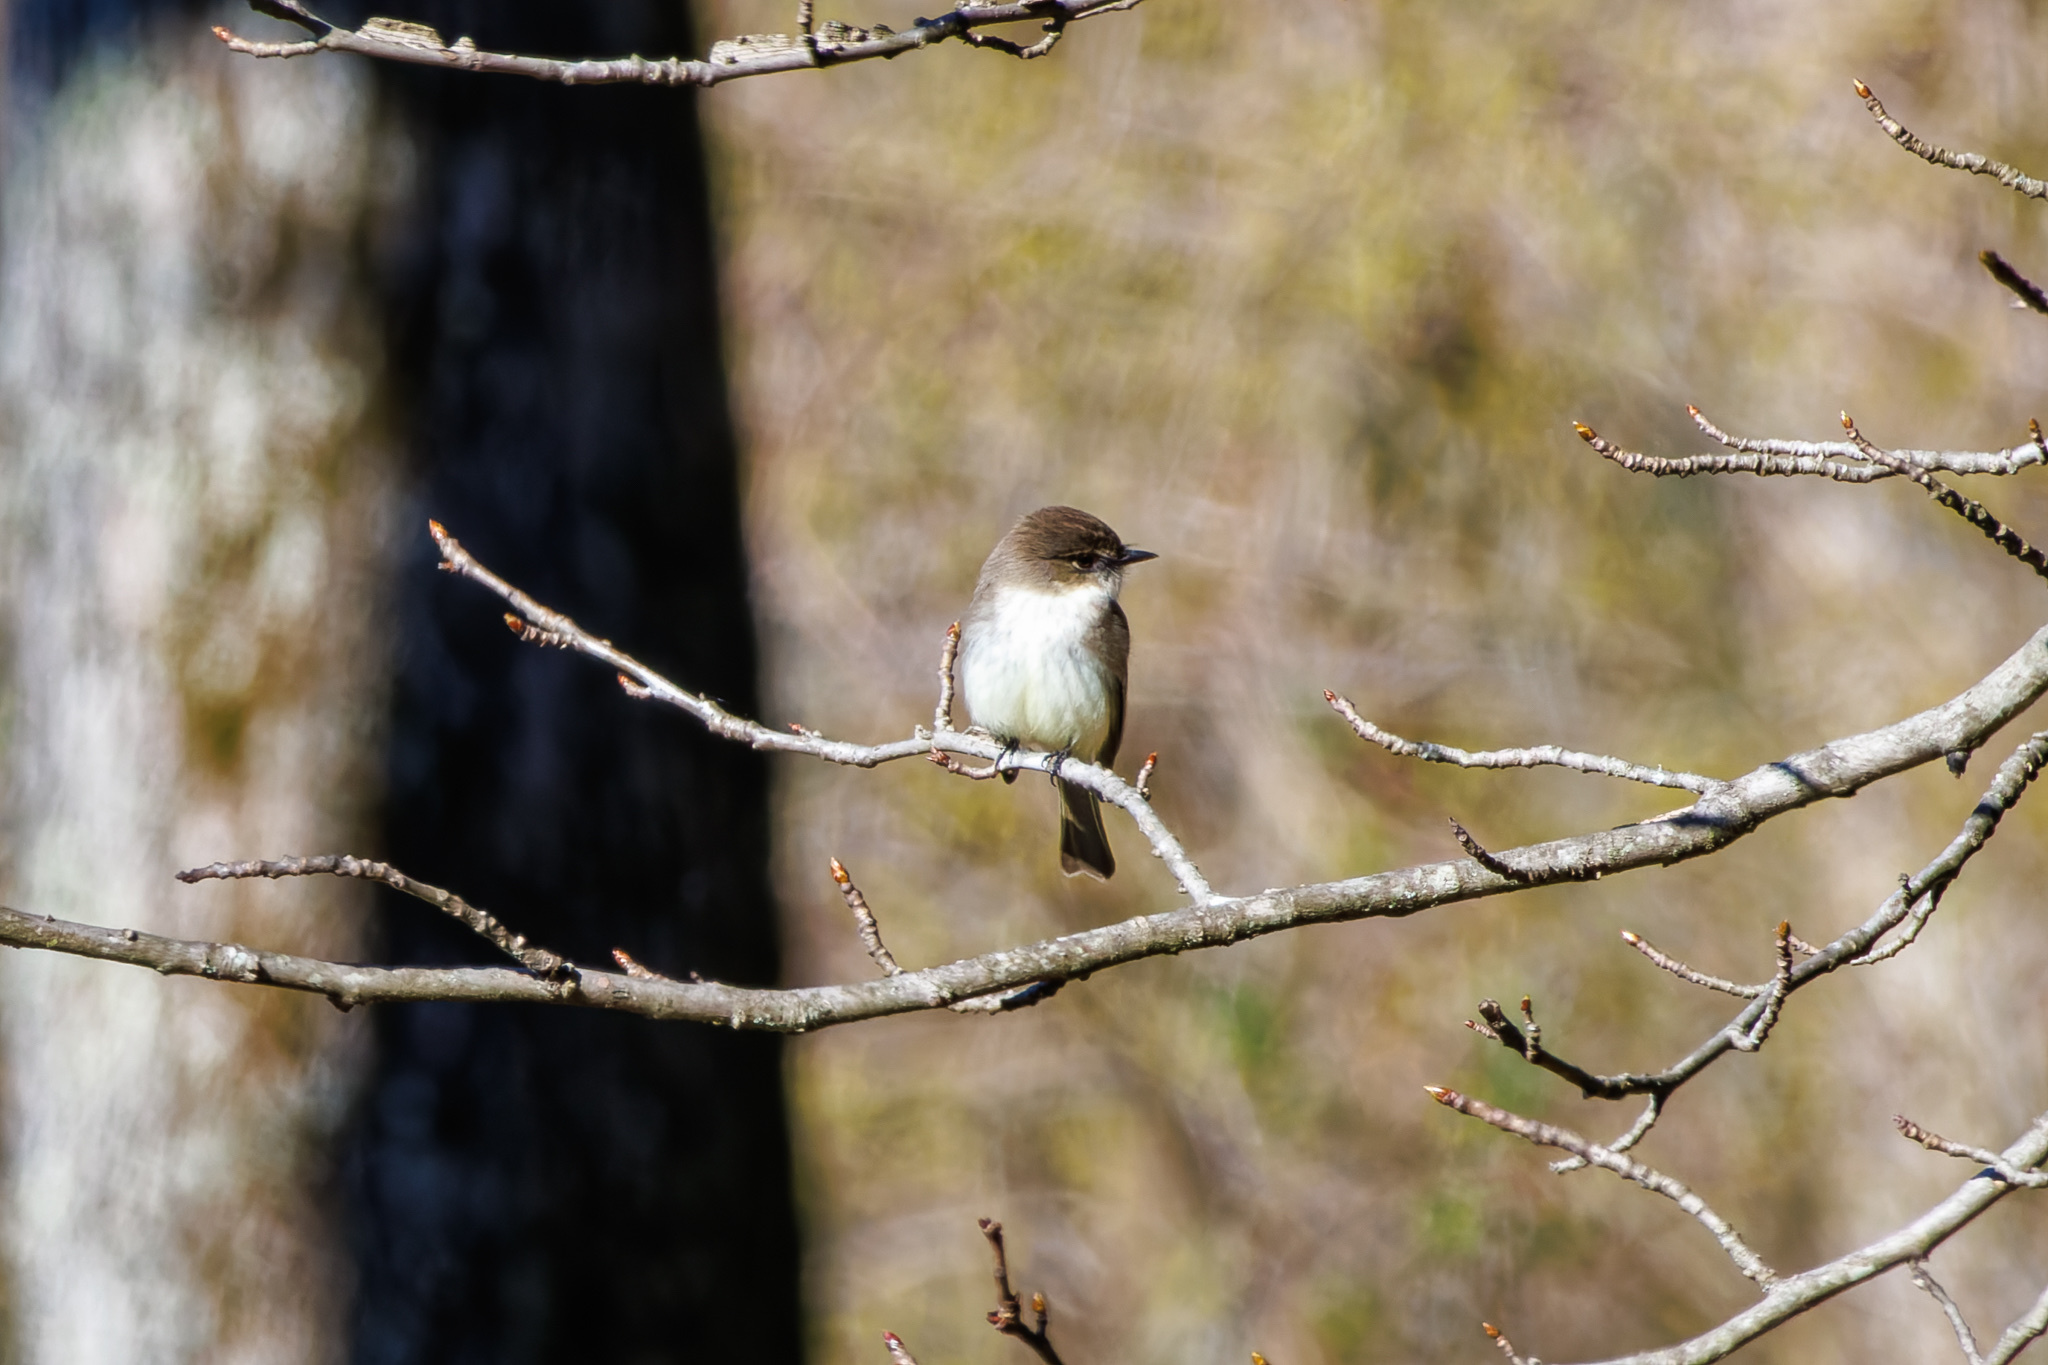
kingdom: Animalia
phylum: Chordata
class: Aves
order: Passeriformes
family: Tyrannidae
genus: Sayornis
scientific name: Sayornis phoebe
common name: Eastern phoebe
